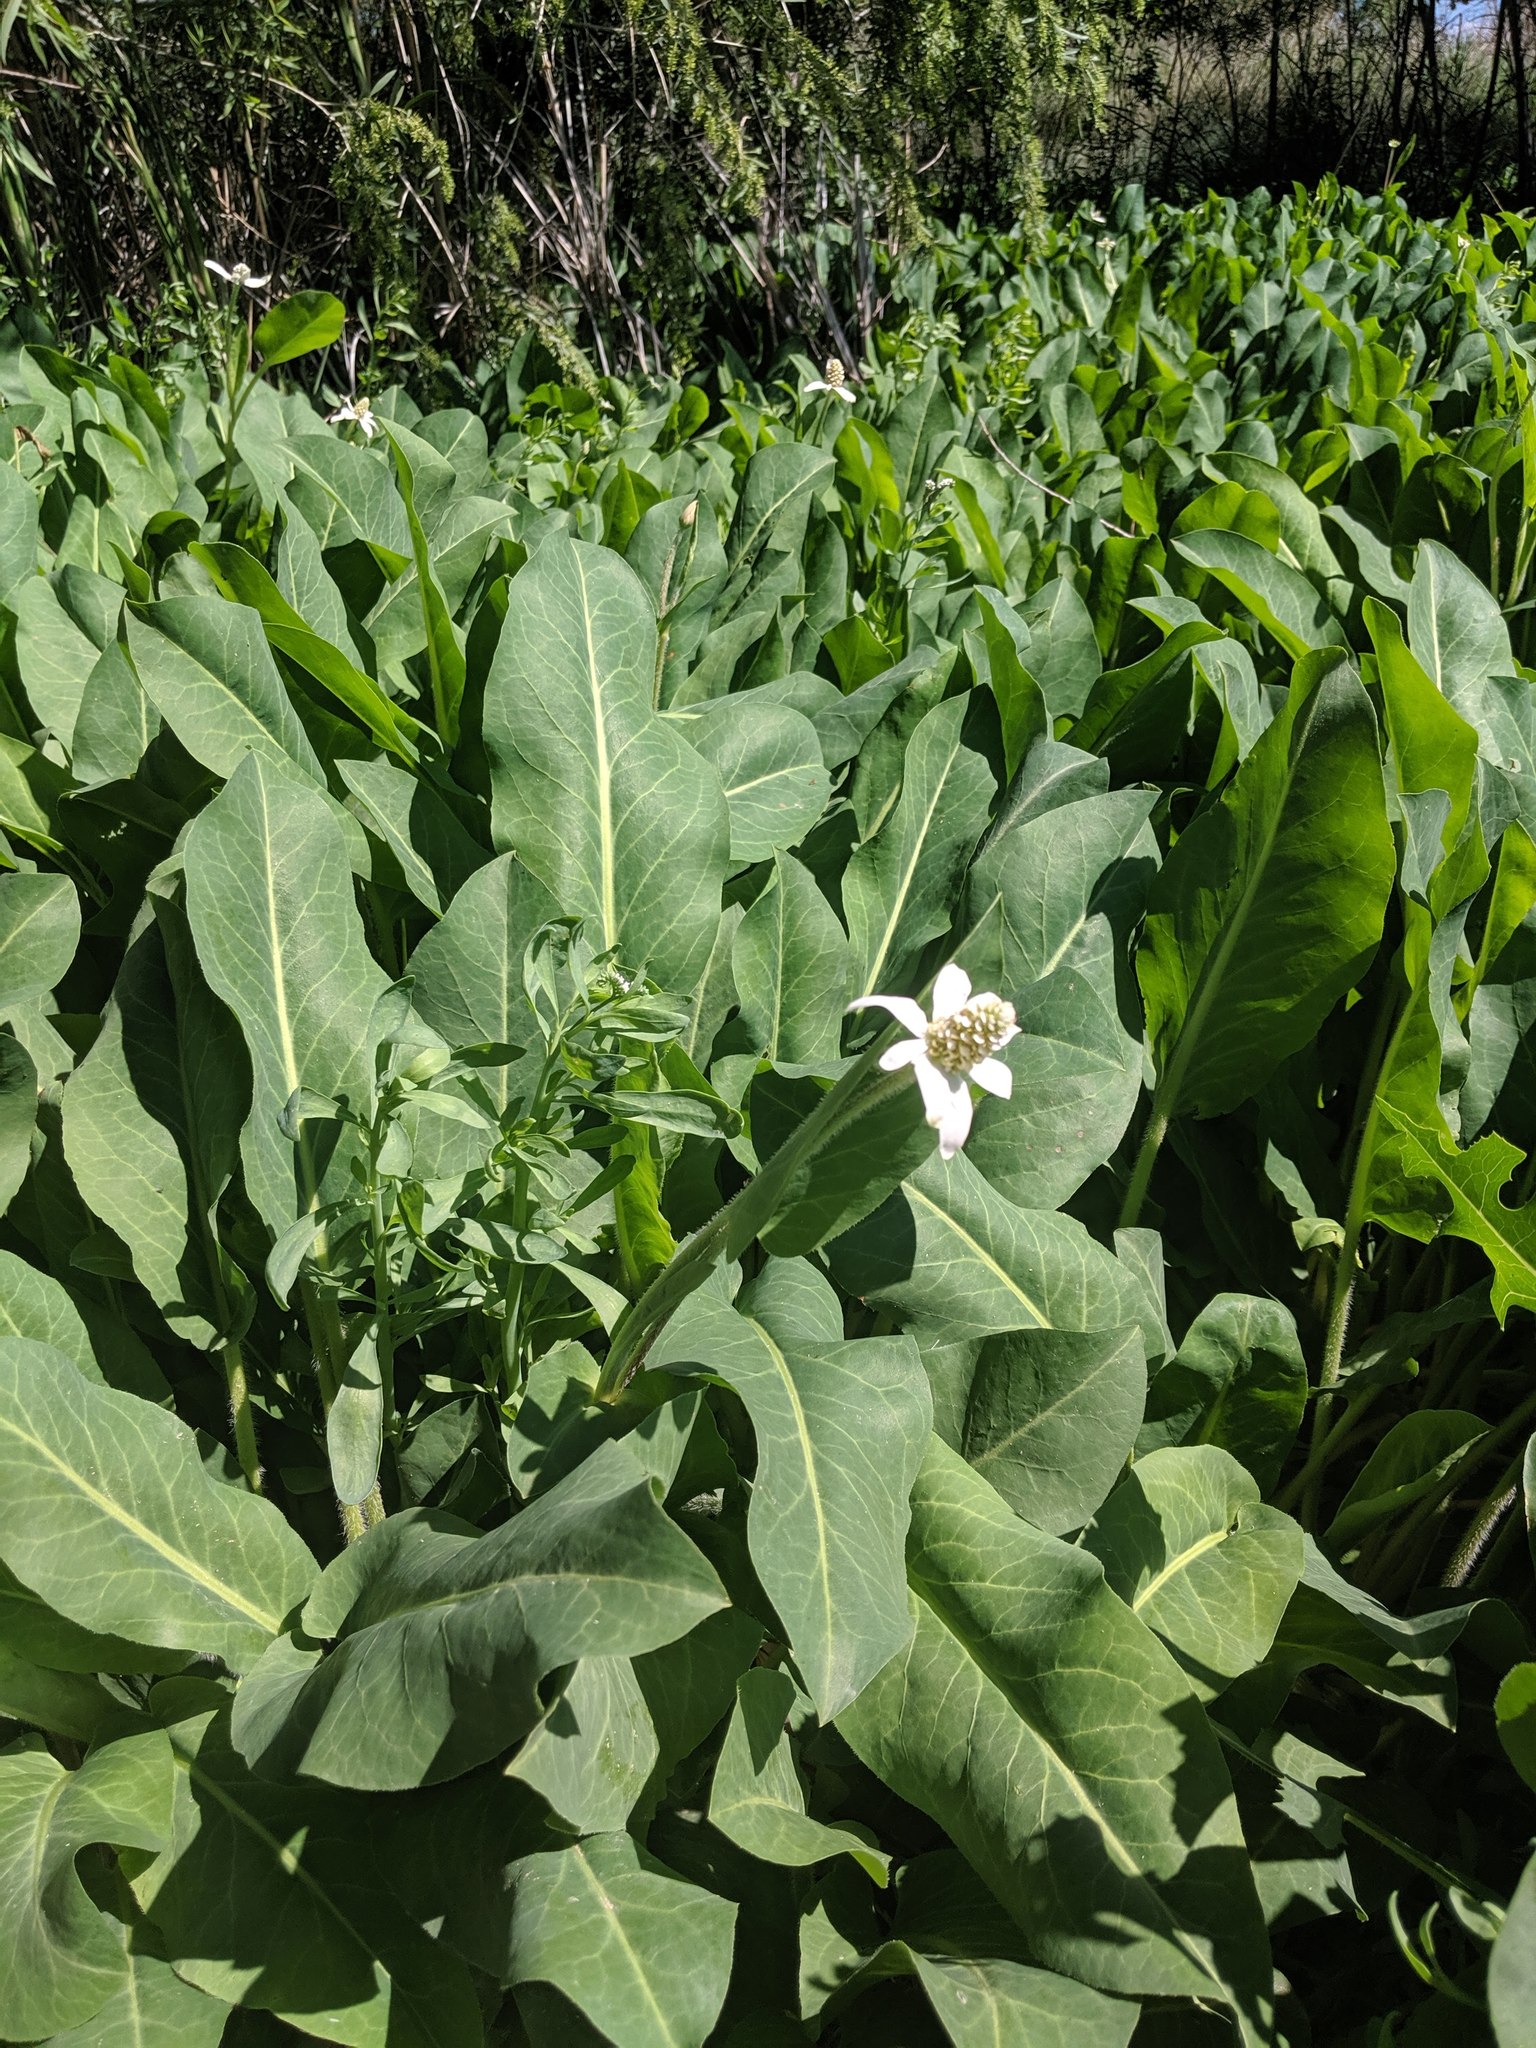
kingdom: Plantae
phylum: Tracheophyta
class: Magnoliopsida
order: Piperales
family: Saururaceae
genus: Anemopsis
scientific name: Anemopsis californica
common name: Apache-beads
